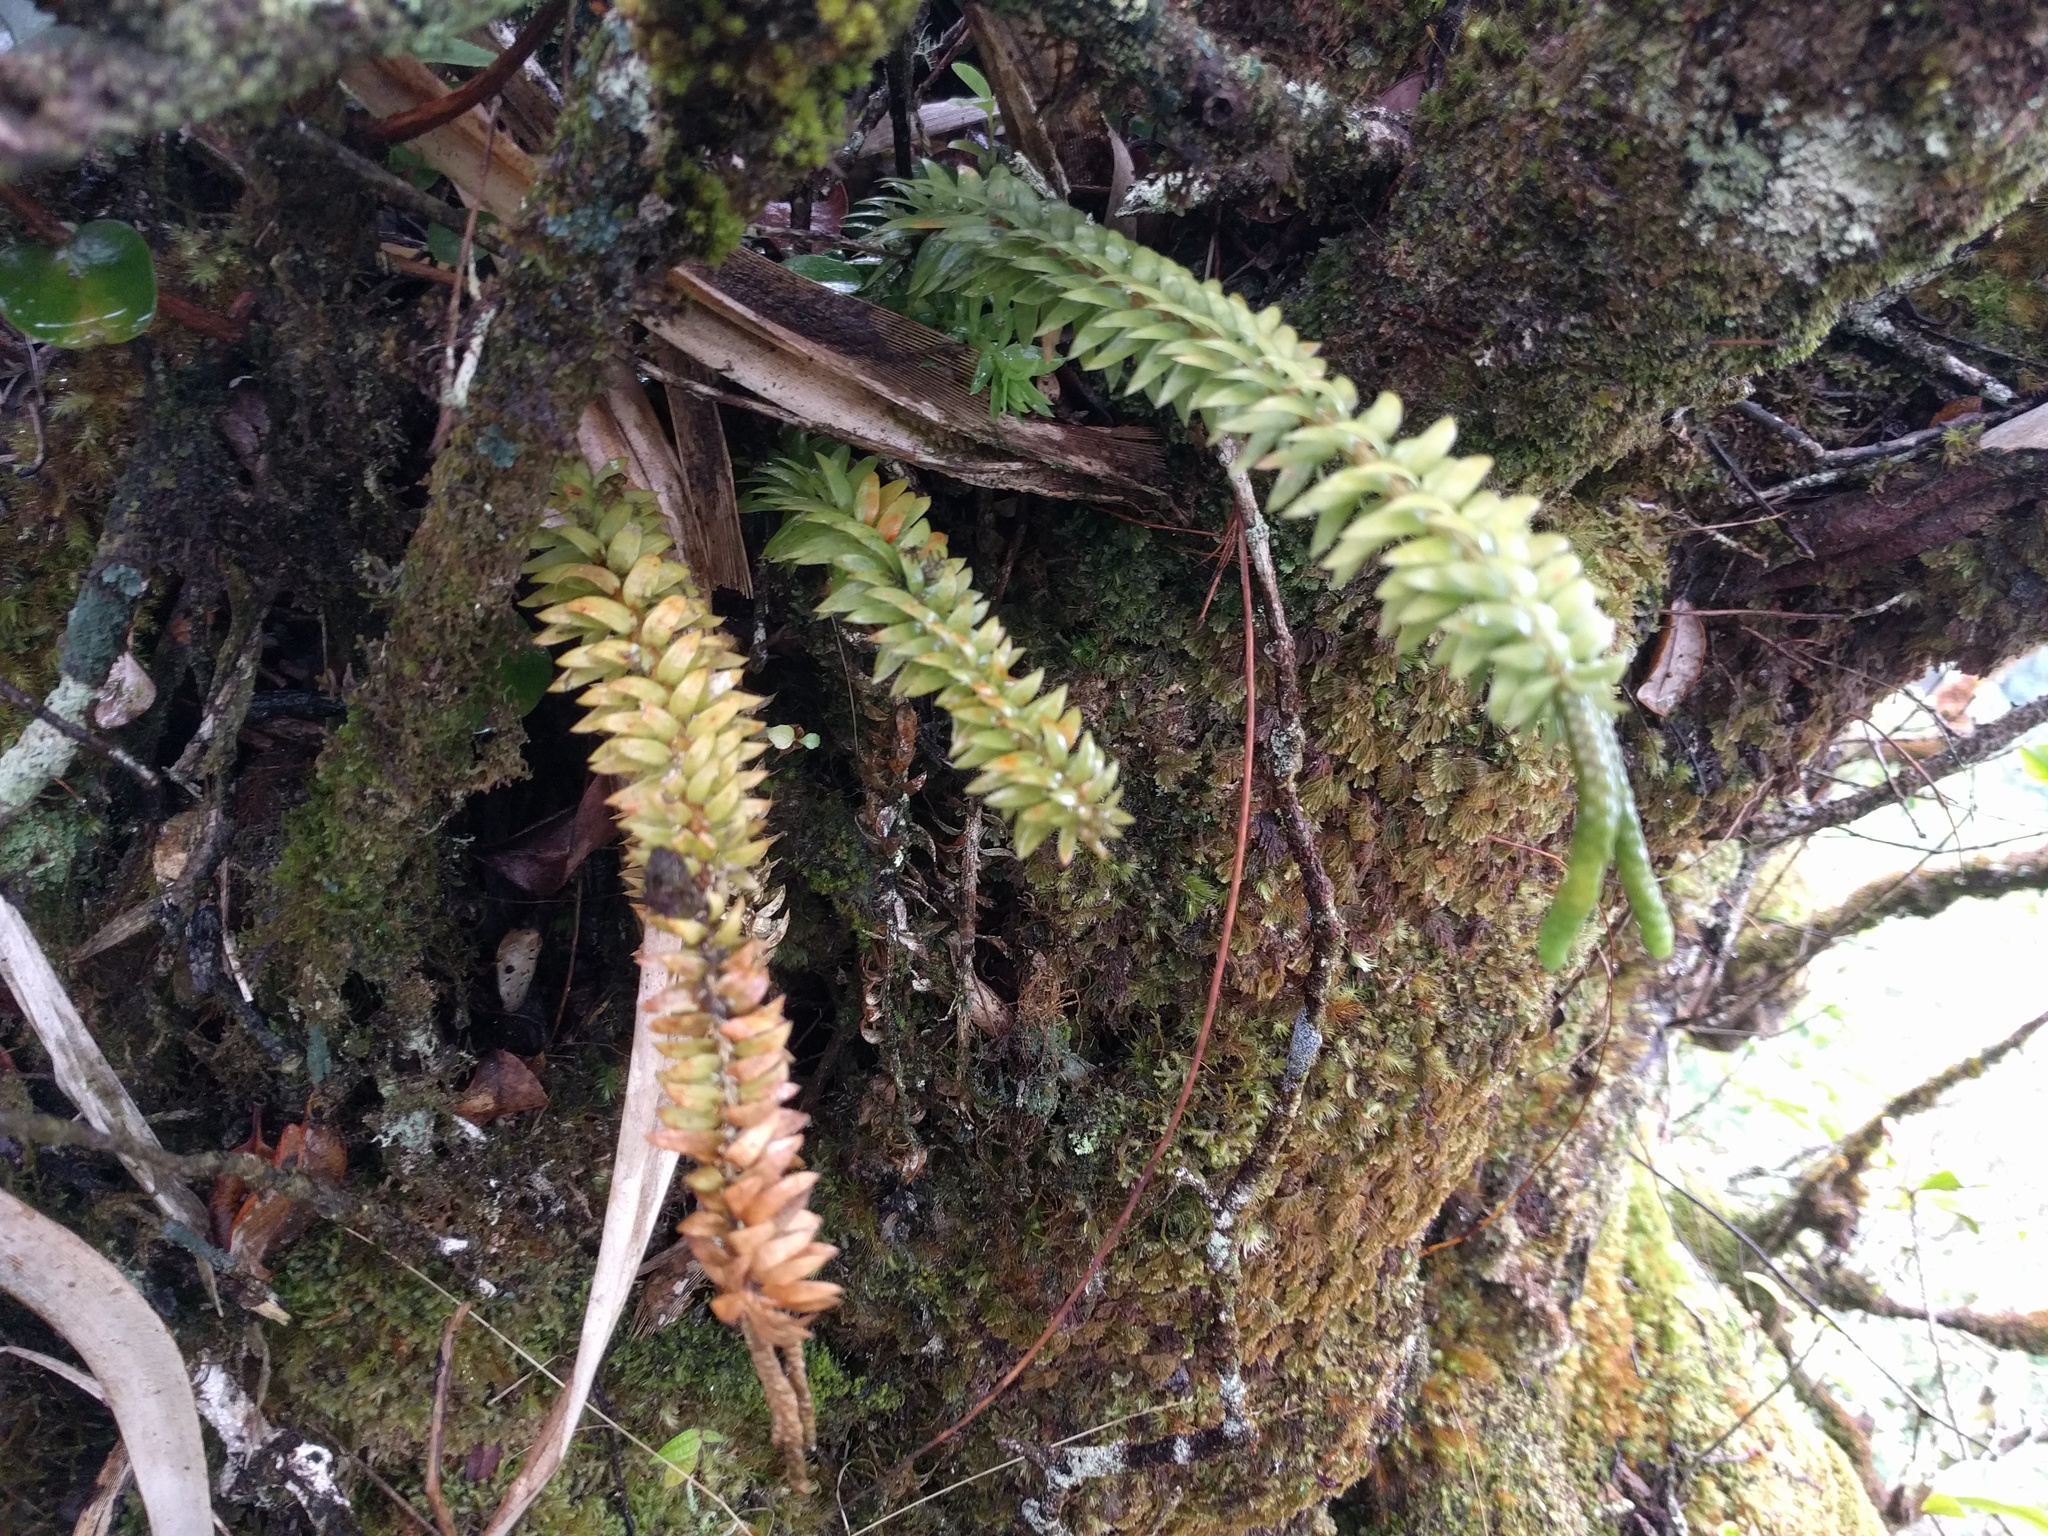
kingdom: Plantae
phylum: Tracheophyta
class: Lycopodiopsida
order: Lycopodiales
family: Lycopodiaceae
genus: Phlegmariurus
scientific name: Phlegmariurus phyllanthus
